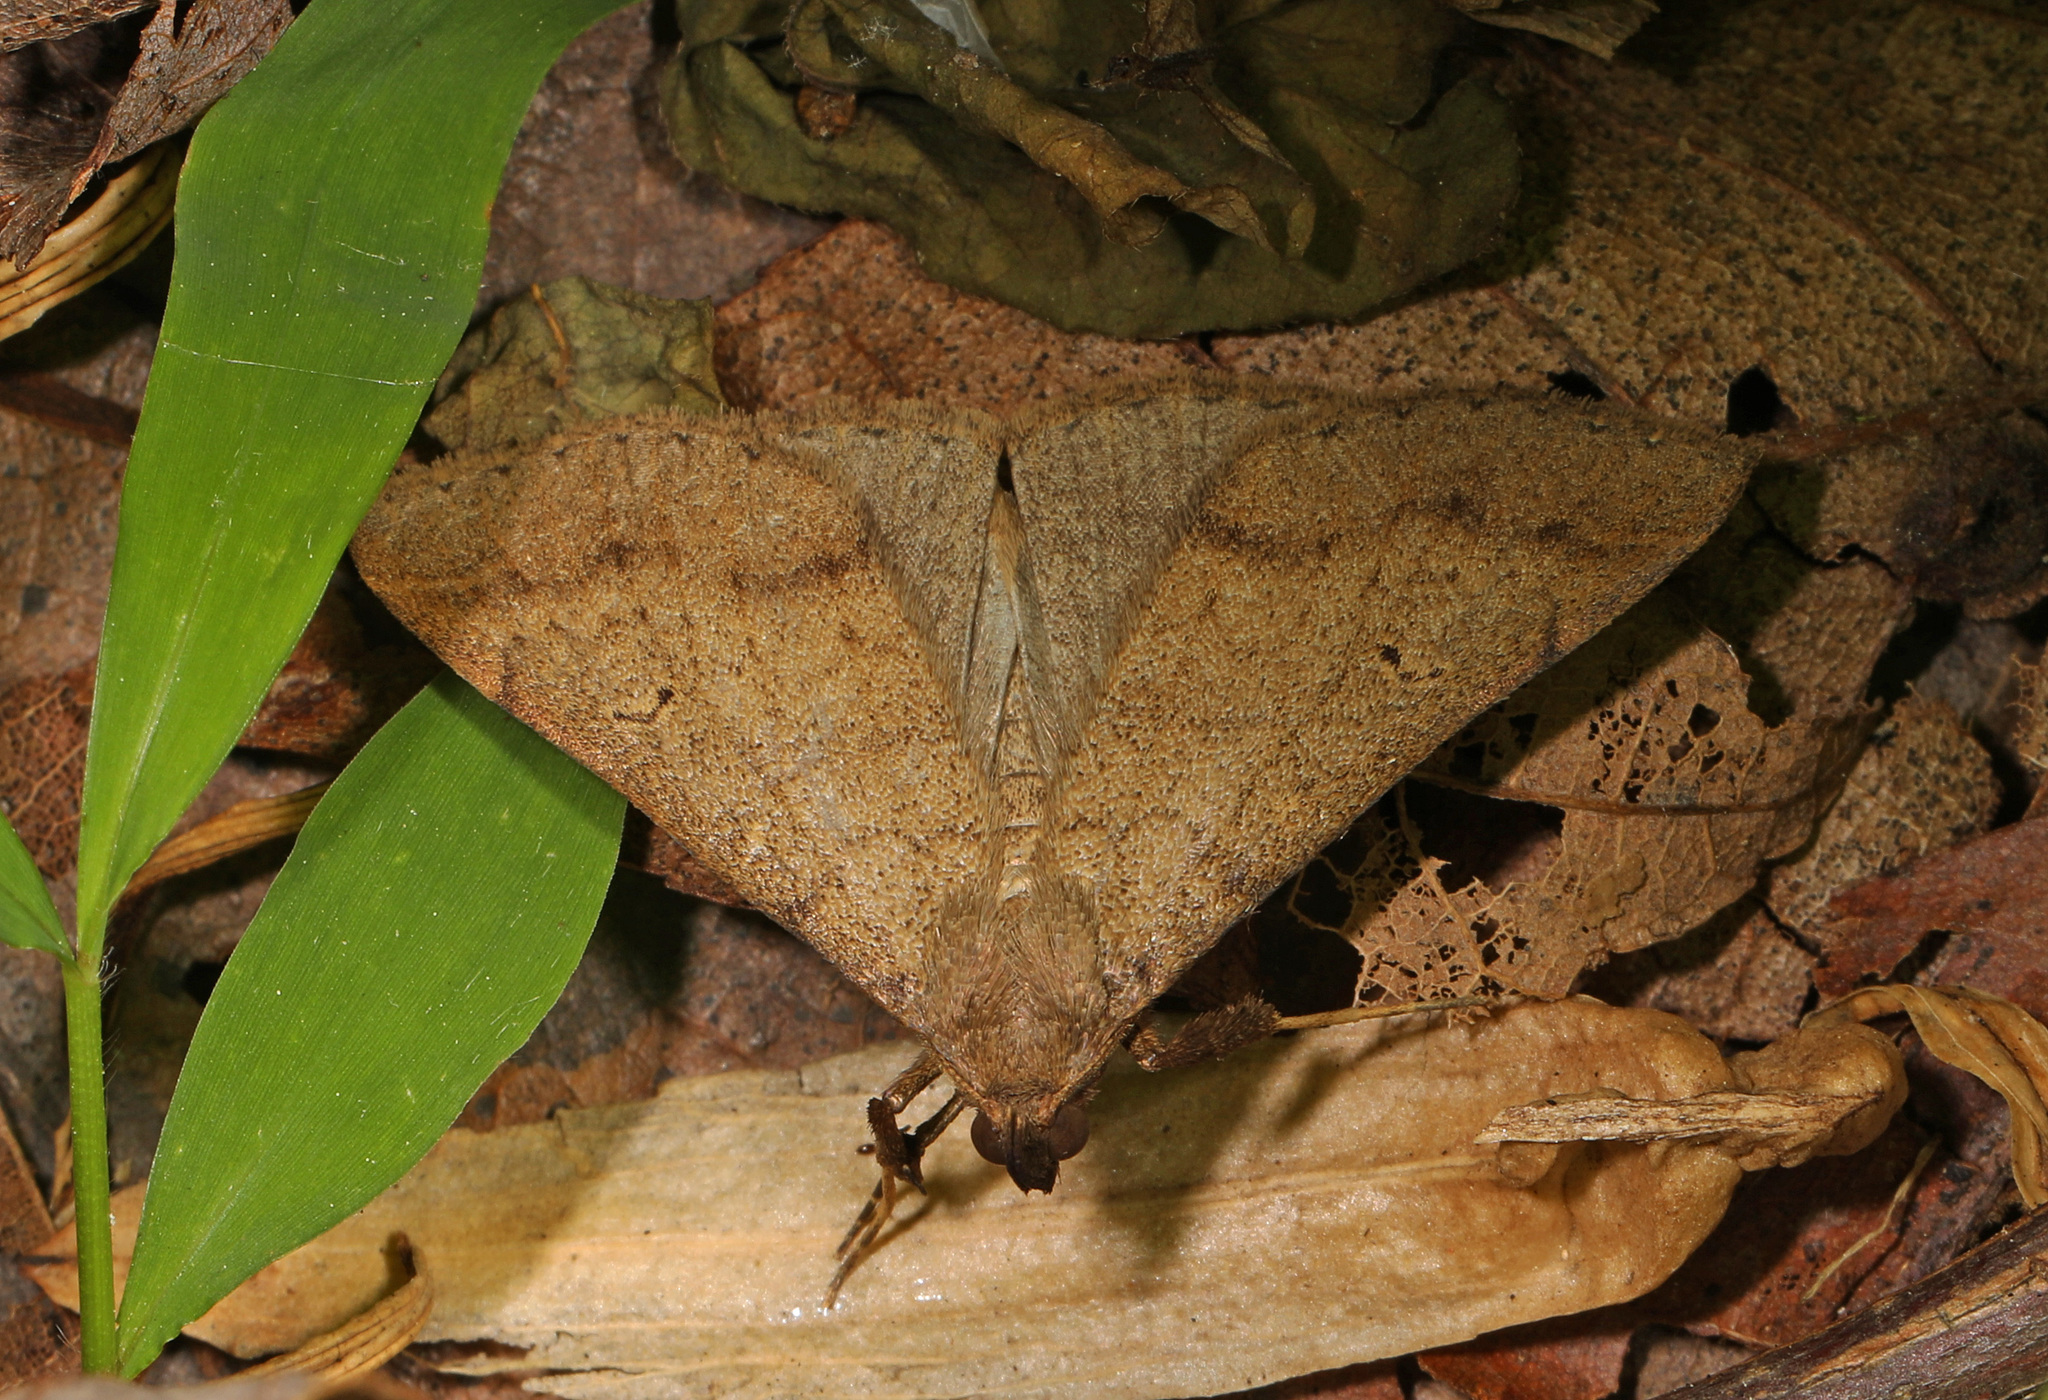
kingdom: Animalia
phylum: Arthropoda
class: Insecta
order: Lepidoptera
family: Erebidae
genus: Renia
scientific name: Renia discoloralis
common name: Discolored renia moth
